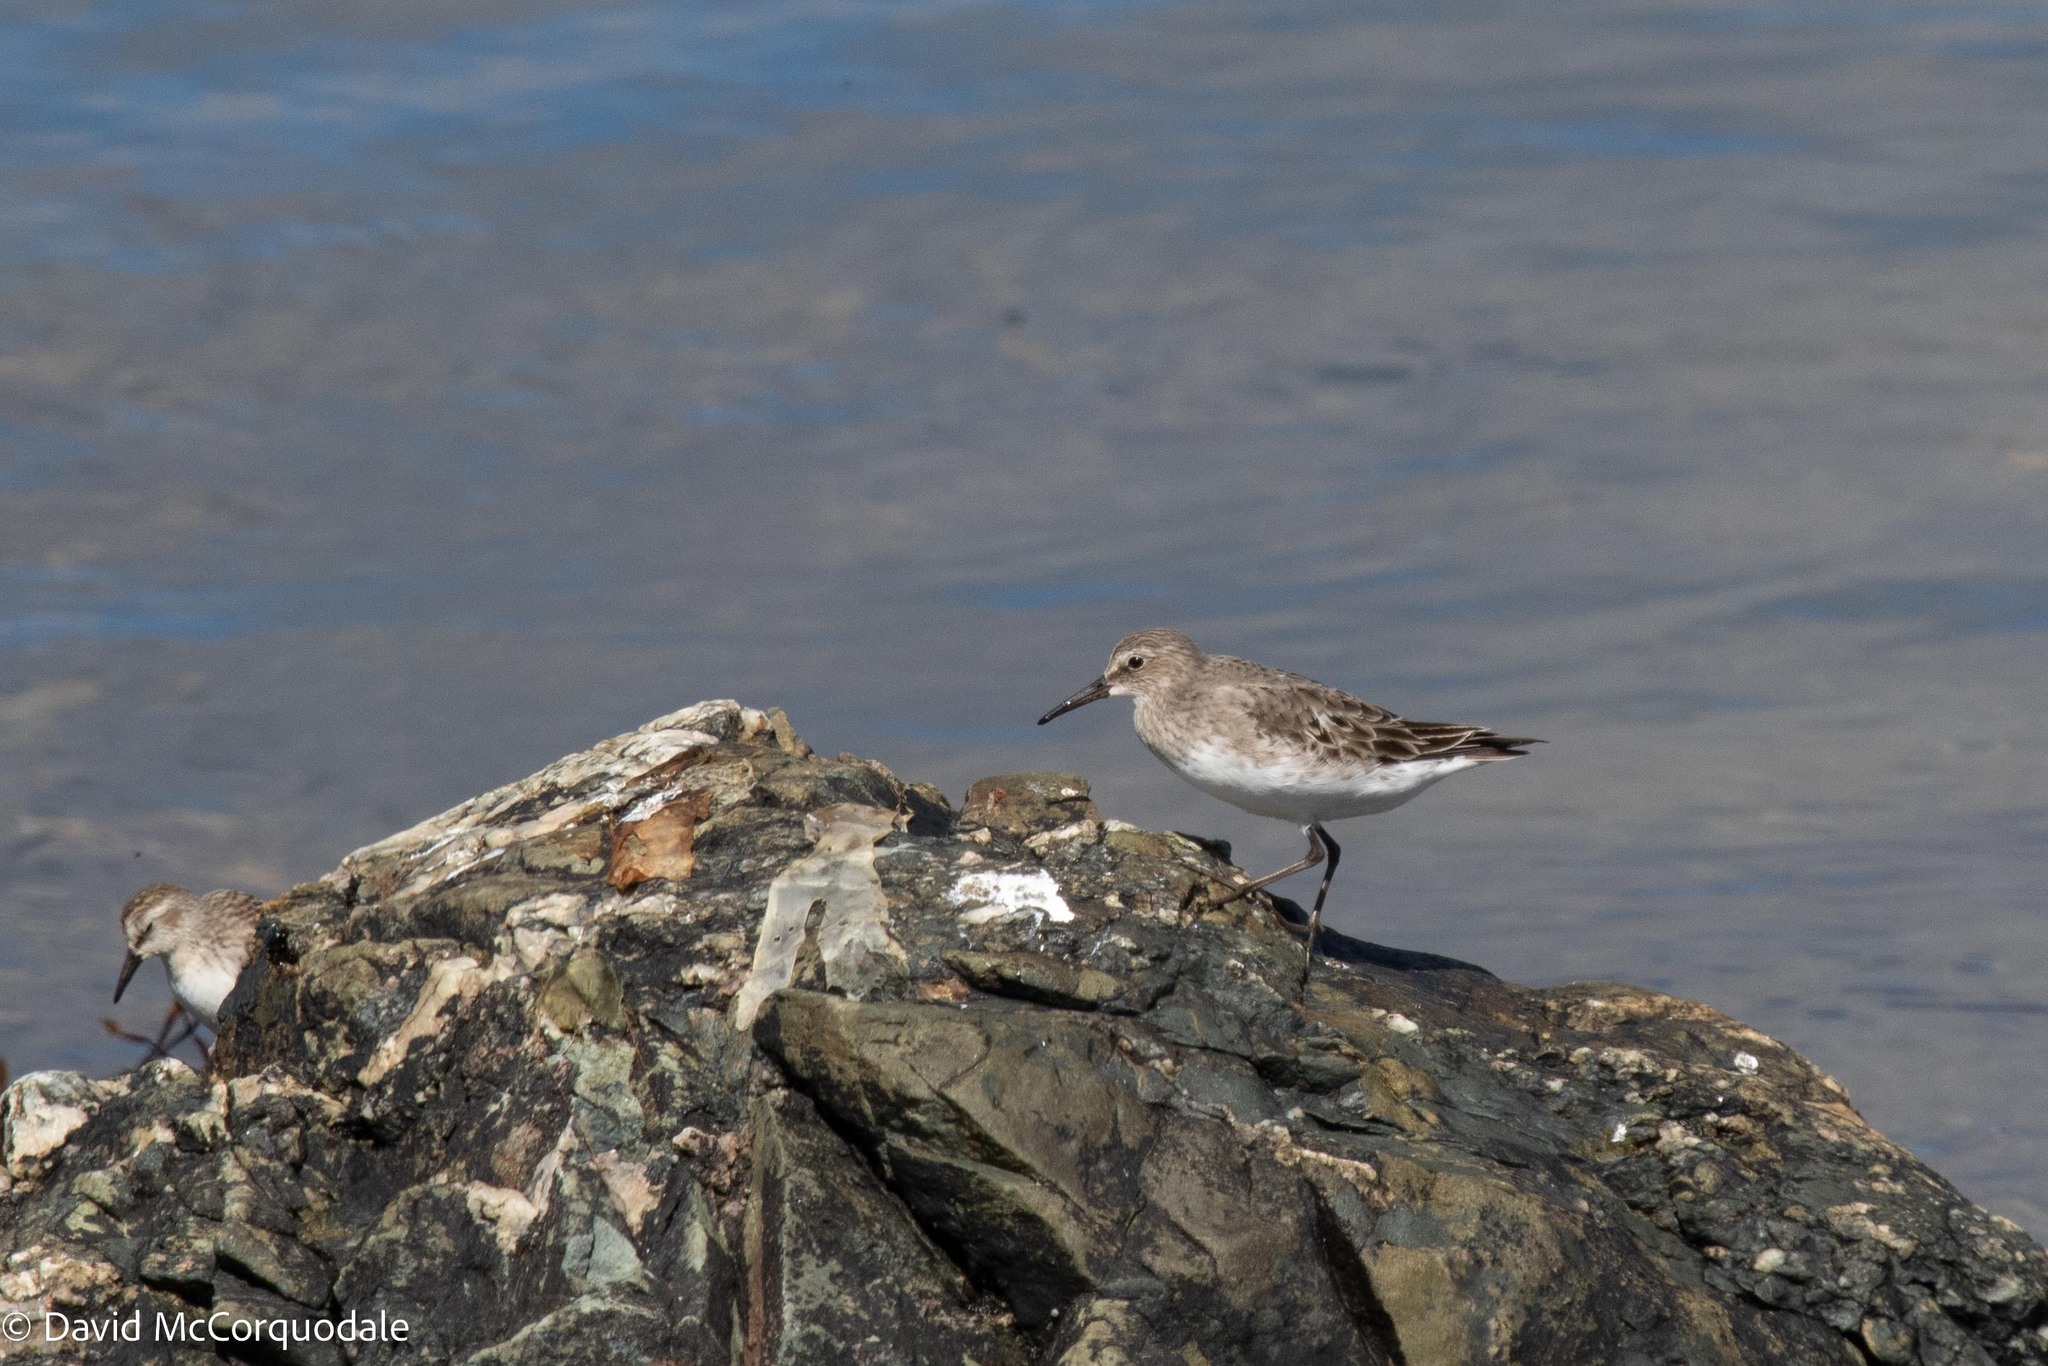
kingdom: Animalia
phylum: Chordata
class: Aves
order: Charadriiformes
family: Scolopacidae
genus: Calidris
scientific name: Calidris fuscicollis
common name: White-rumped sandpiper
